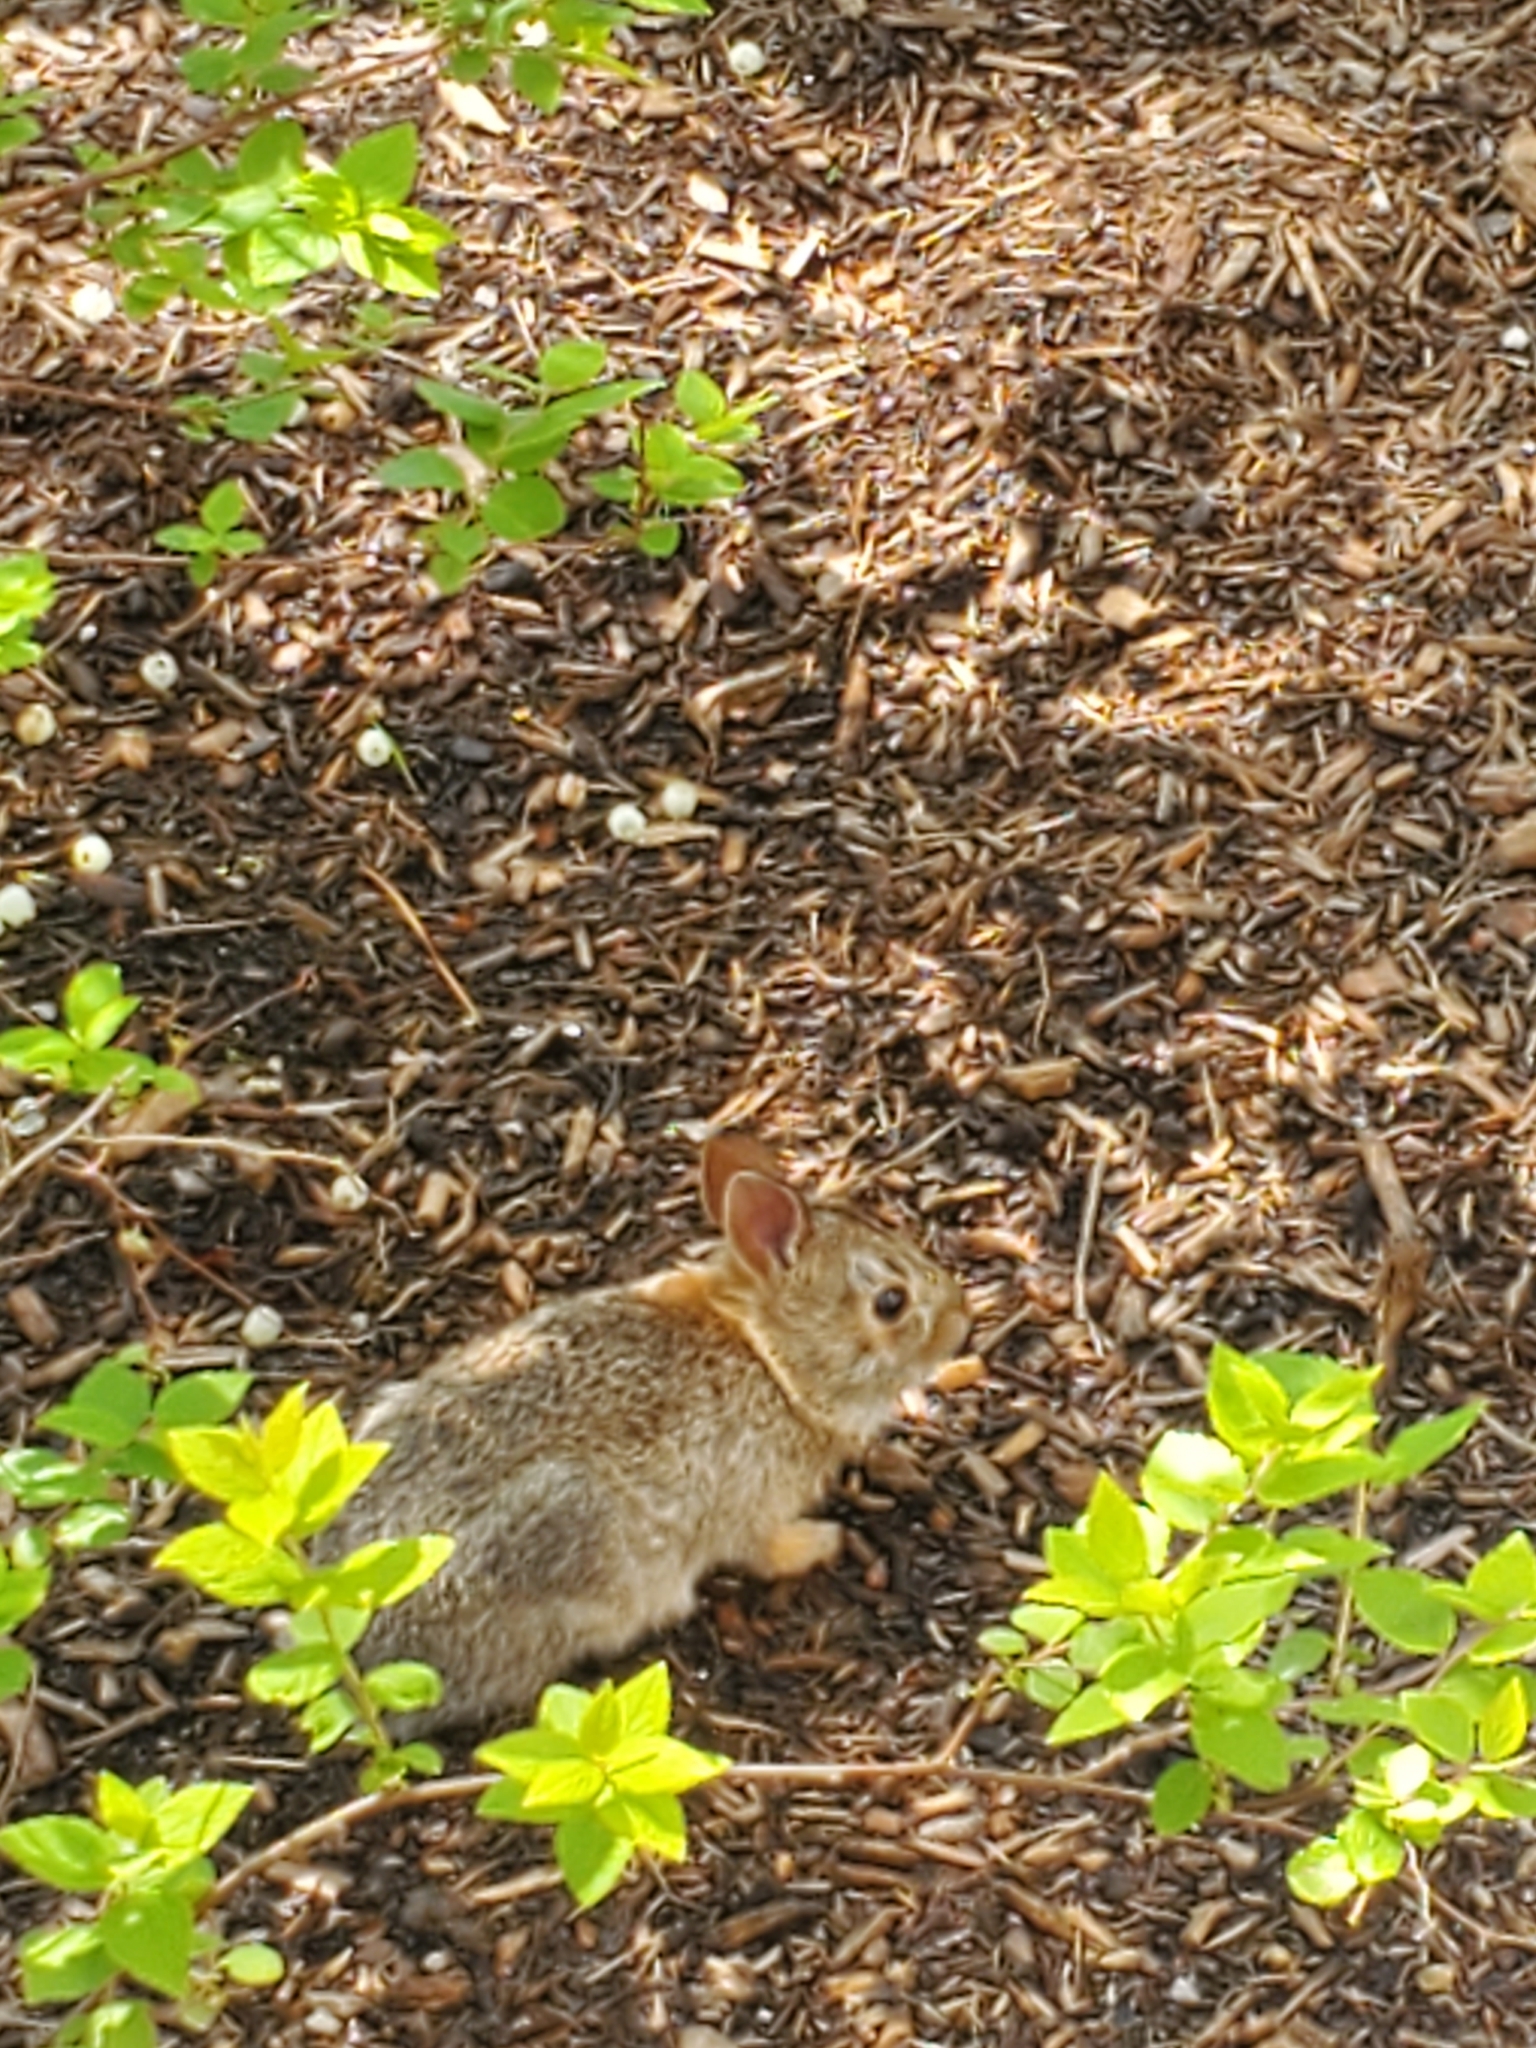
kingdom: Animalia
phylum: Chordata
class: Mammalia
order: Lagomorpha
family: Leporidae
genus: Sylvilagus
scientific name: Sylvilagus floridanus
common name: Eastern cottontail
